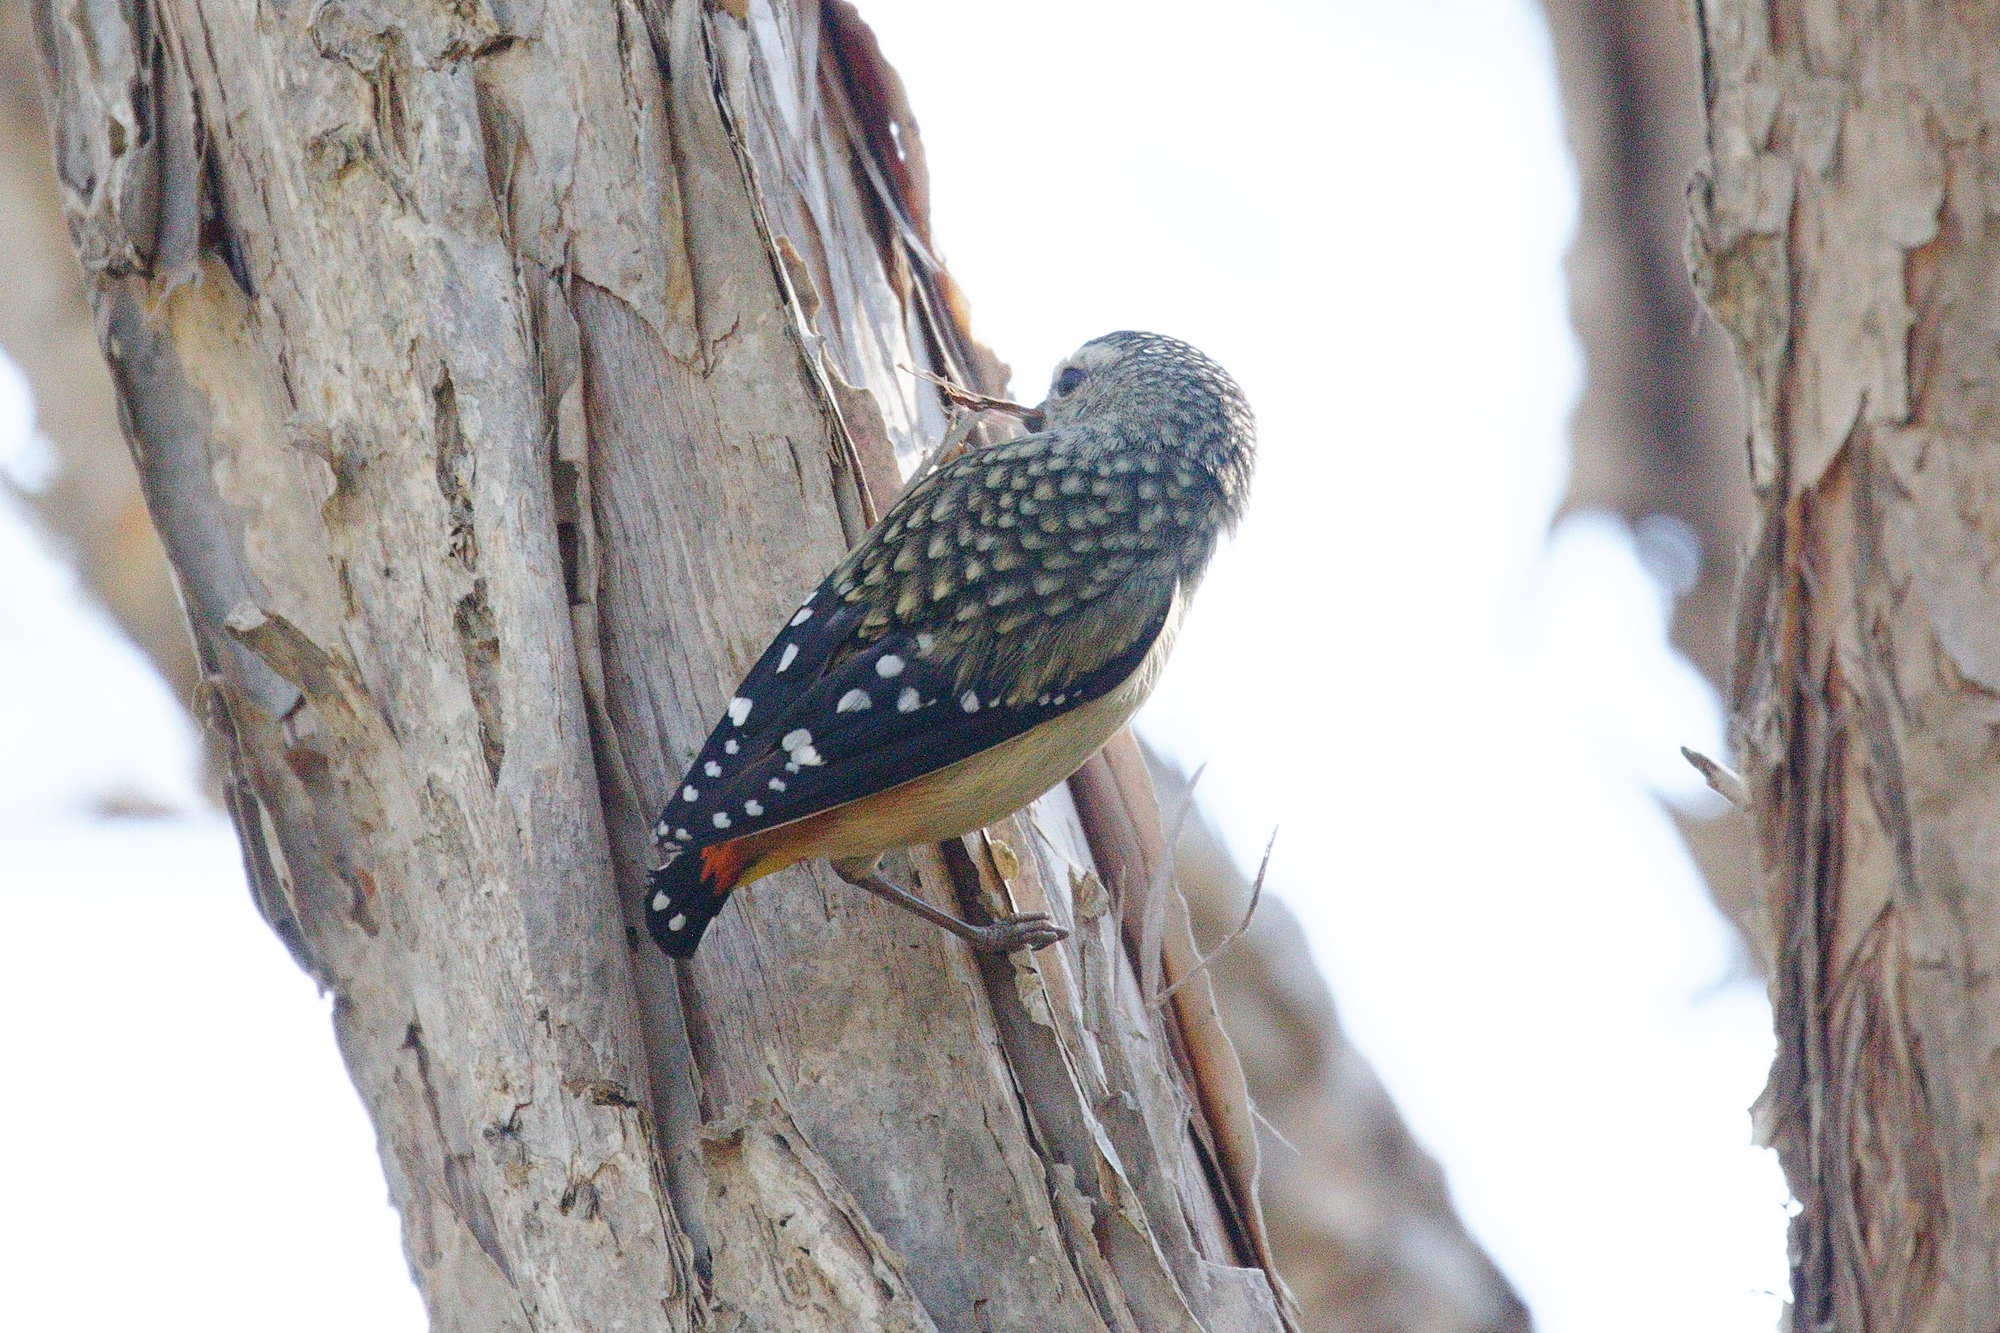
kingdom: Animalia
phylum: Chordata
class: Aves
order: Passeriformes
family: Pardalotidae
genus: Pardalotus
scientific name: Pardalotus punctatus
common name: Spotted pardalote
